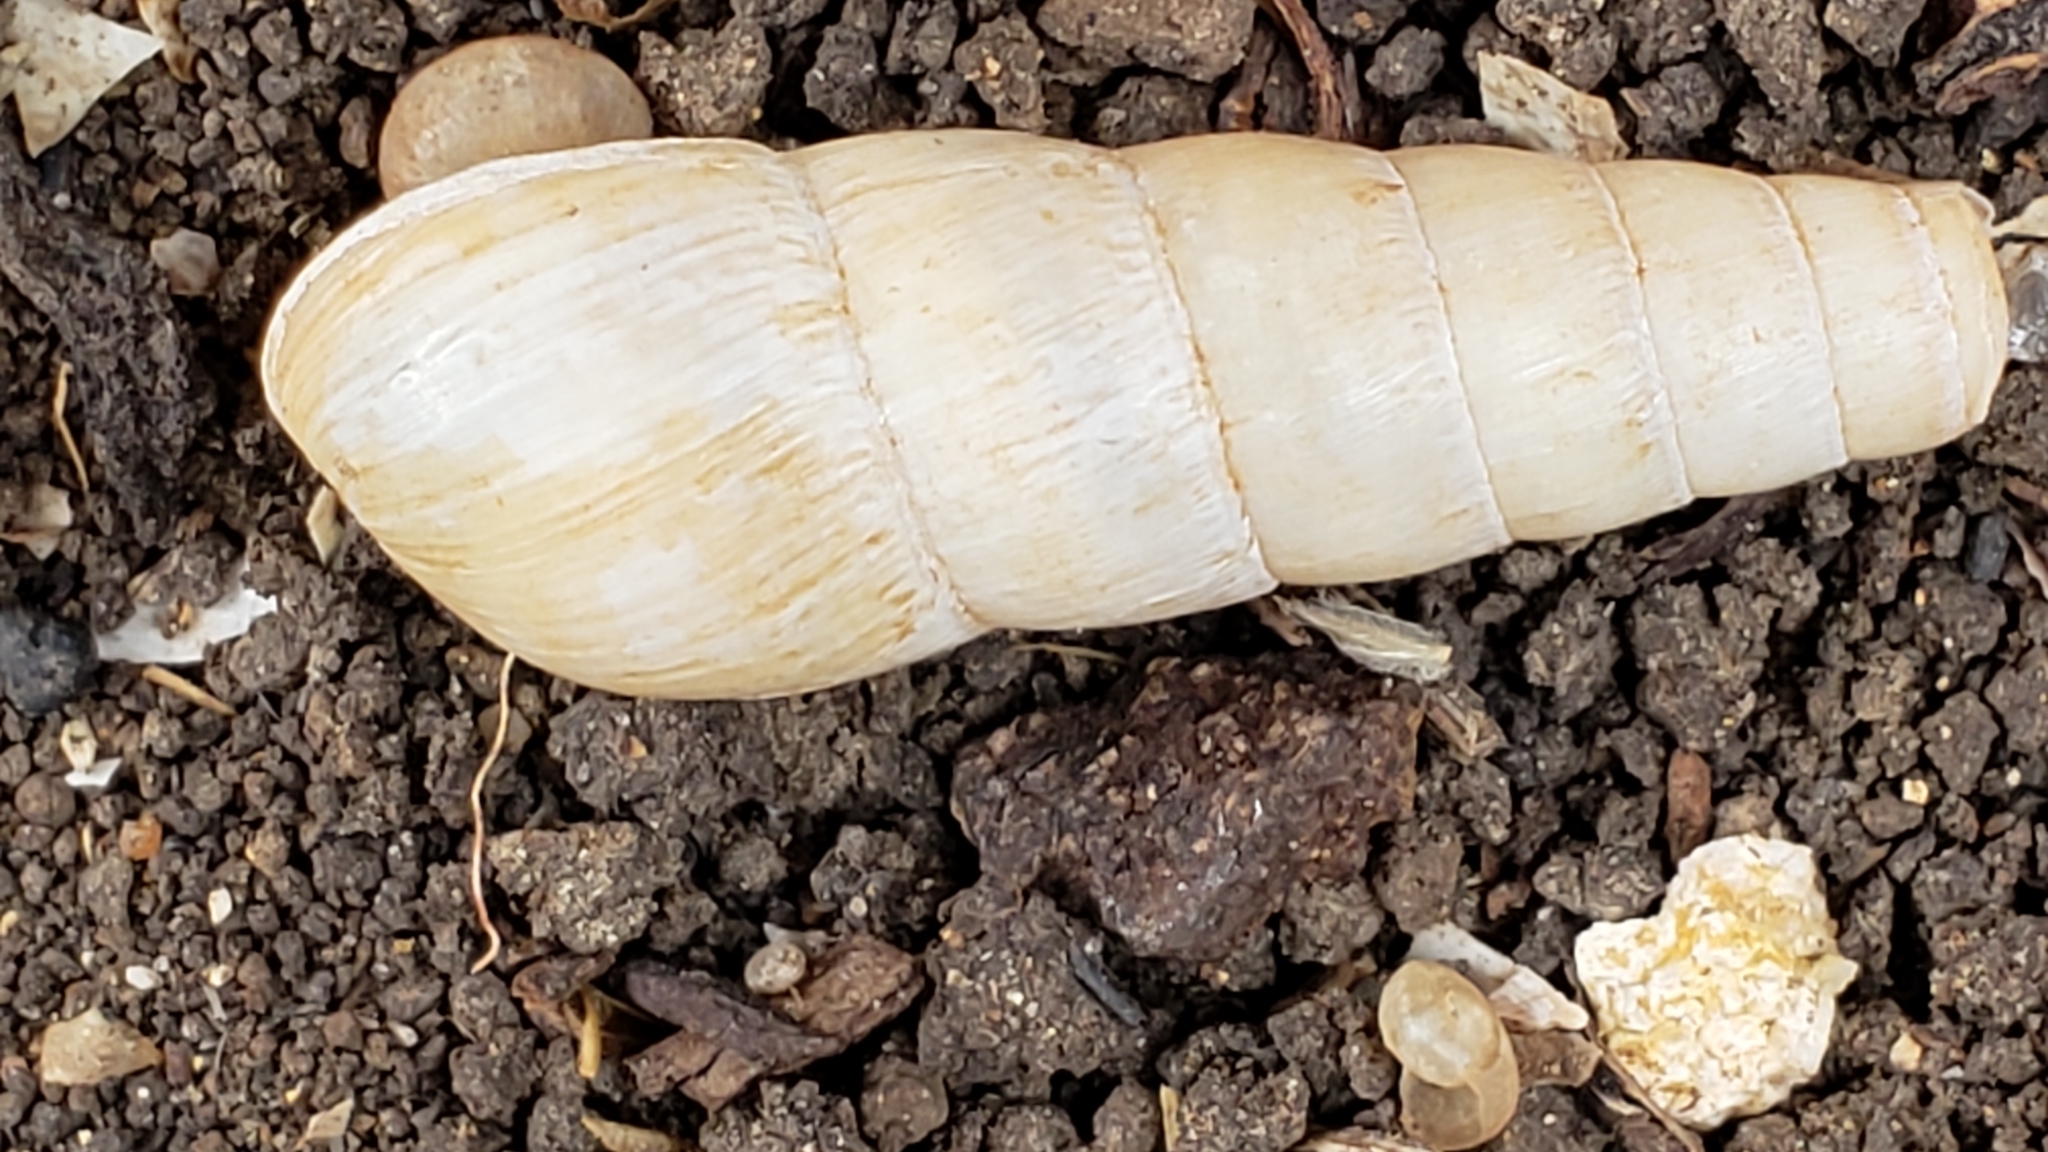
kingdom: Animalia
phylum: Mollusca
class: Gastropoda
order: Stylommatophora
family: Achatinidae
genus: Rumina
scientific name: Rumina decollata
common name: Decollate snail
